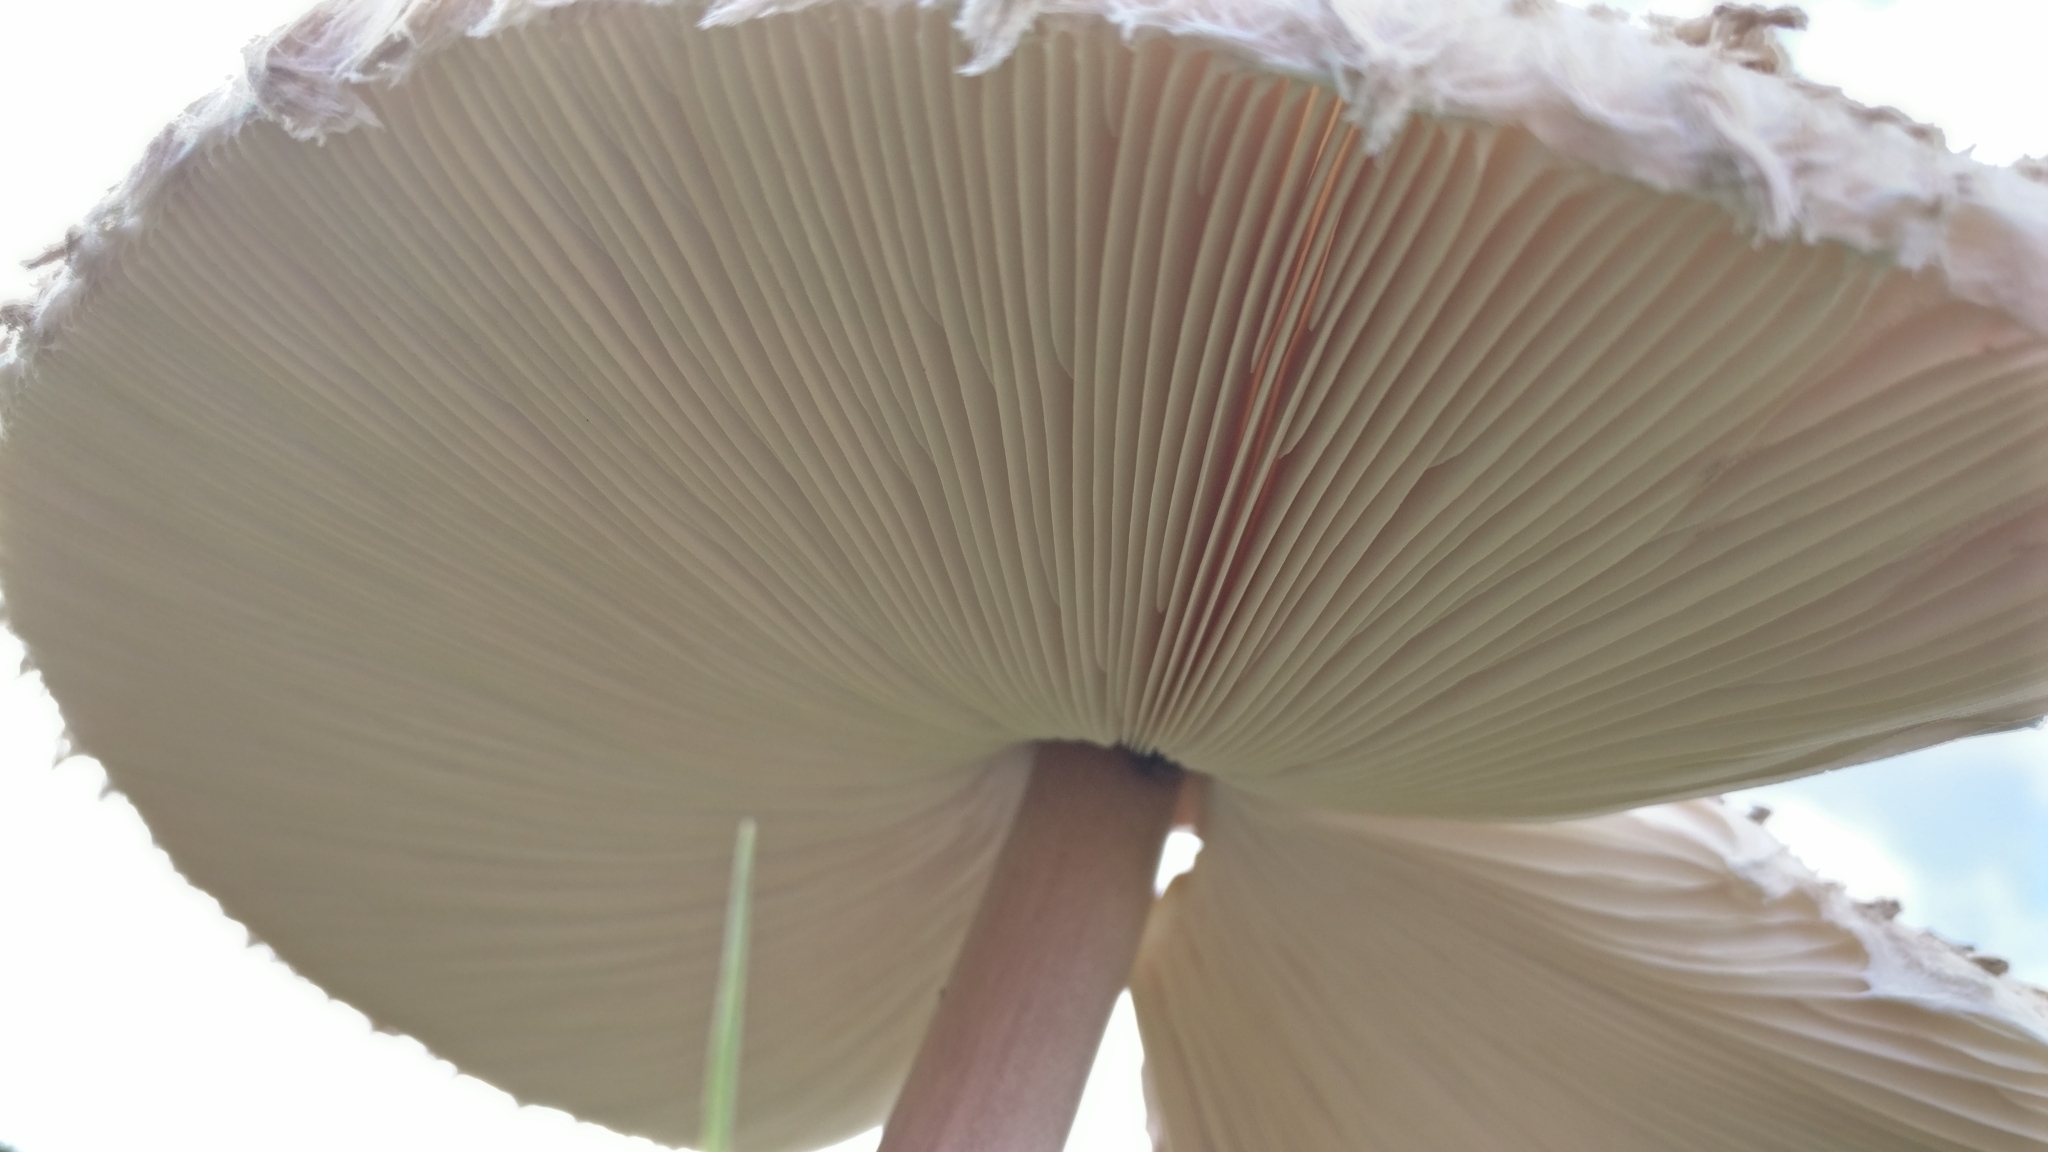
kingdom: Fungi
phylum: Basidiomycota
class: Agaricomycetes
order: Agaricales
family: Agaricaceae
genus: Macrolepiota
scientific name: Macrolepiota procera
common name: Parasol
